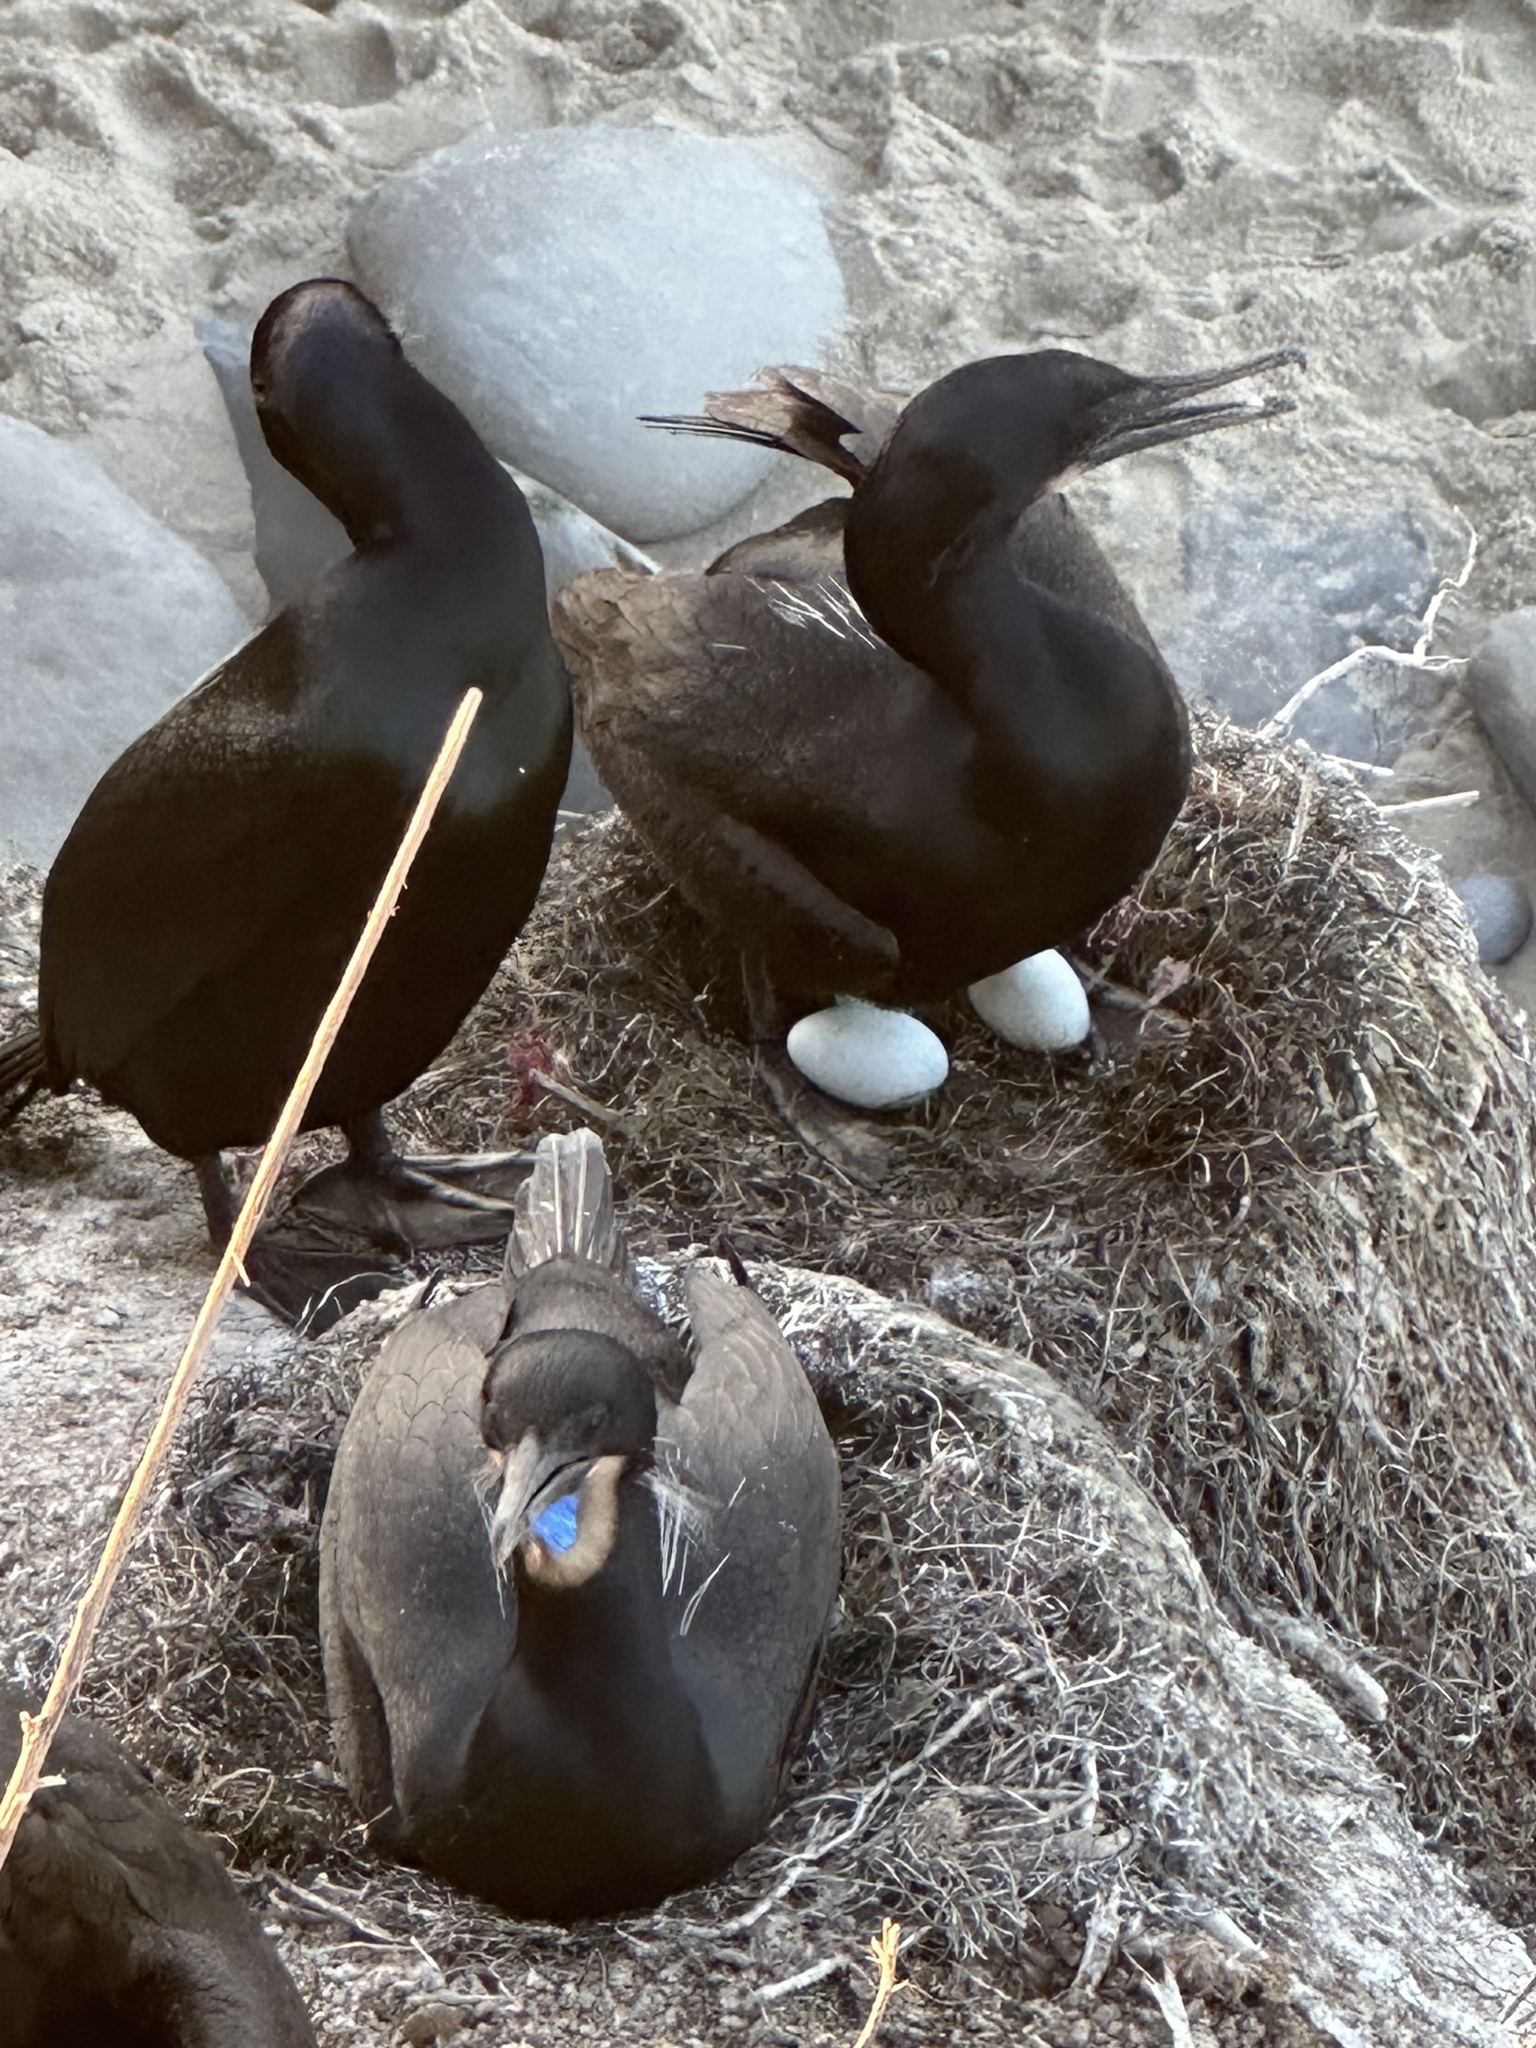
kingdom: Animalia
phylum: Chordata
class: Aves
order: Suliformes
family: Phalacrocoracidae
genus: Urile
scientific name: Urile penicillatus
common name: Brandt's cormorant
